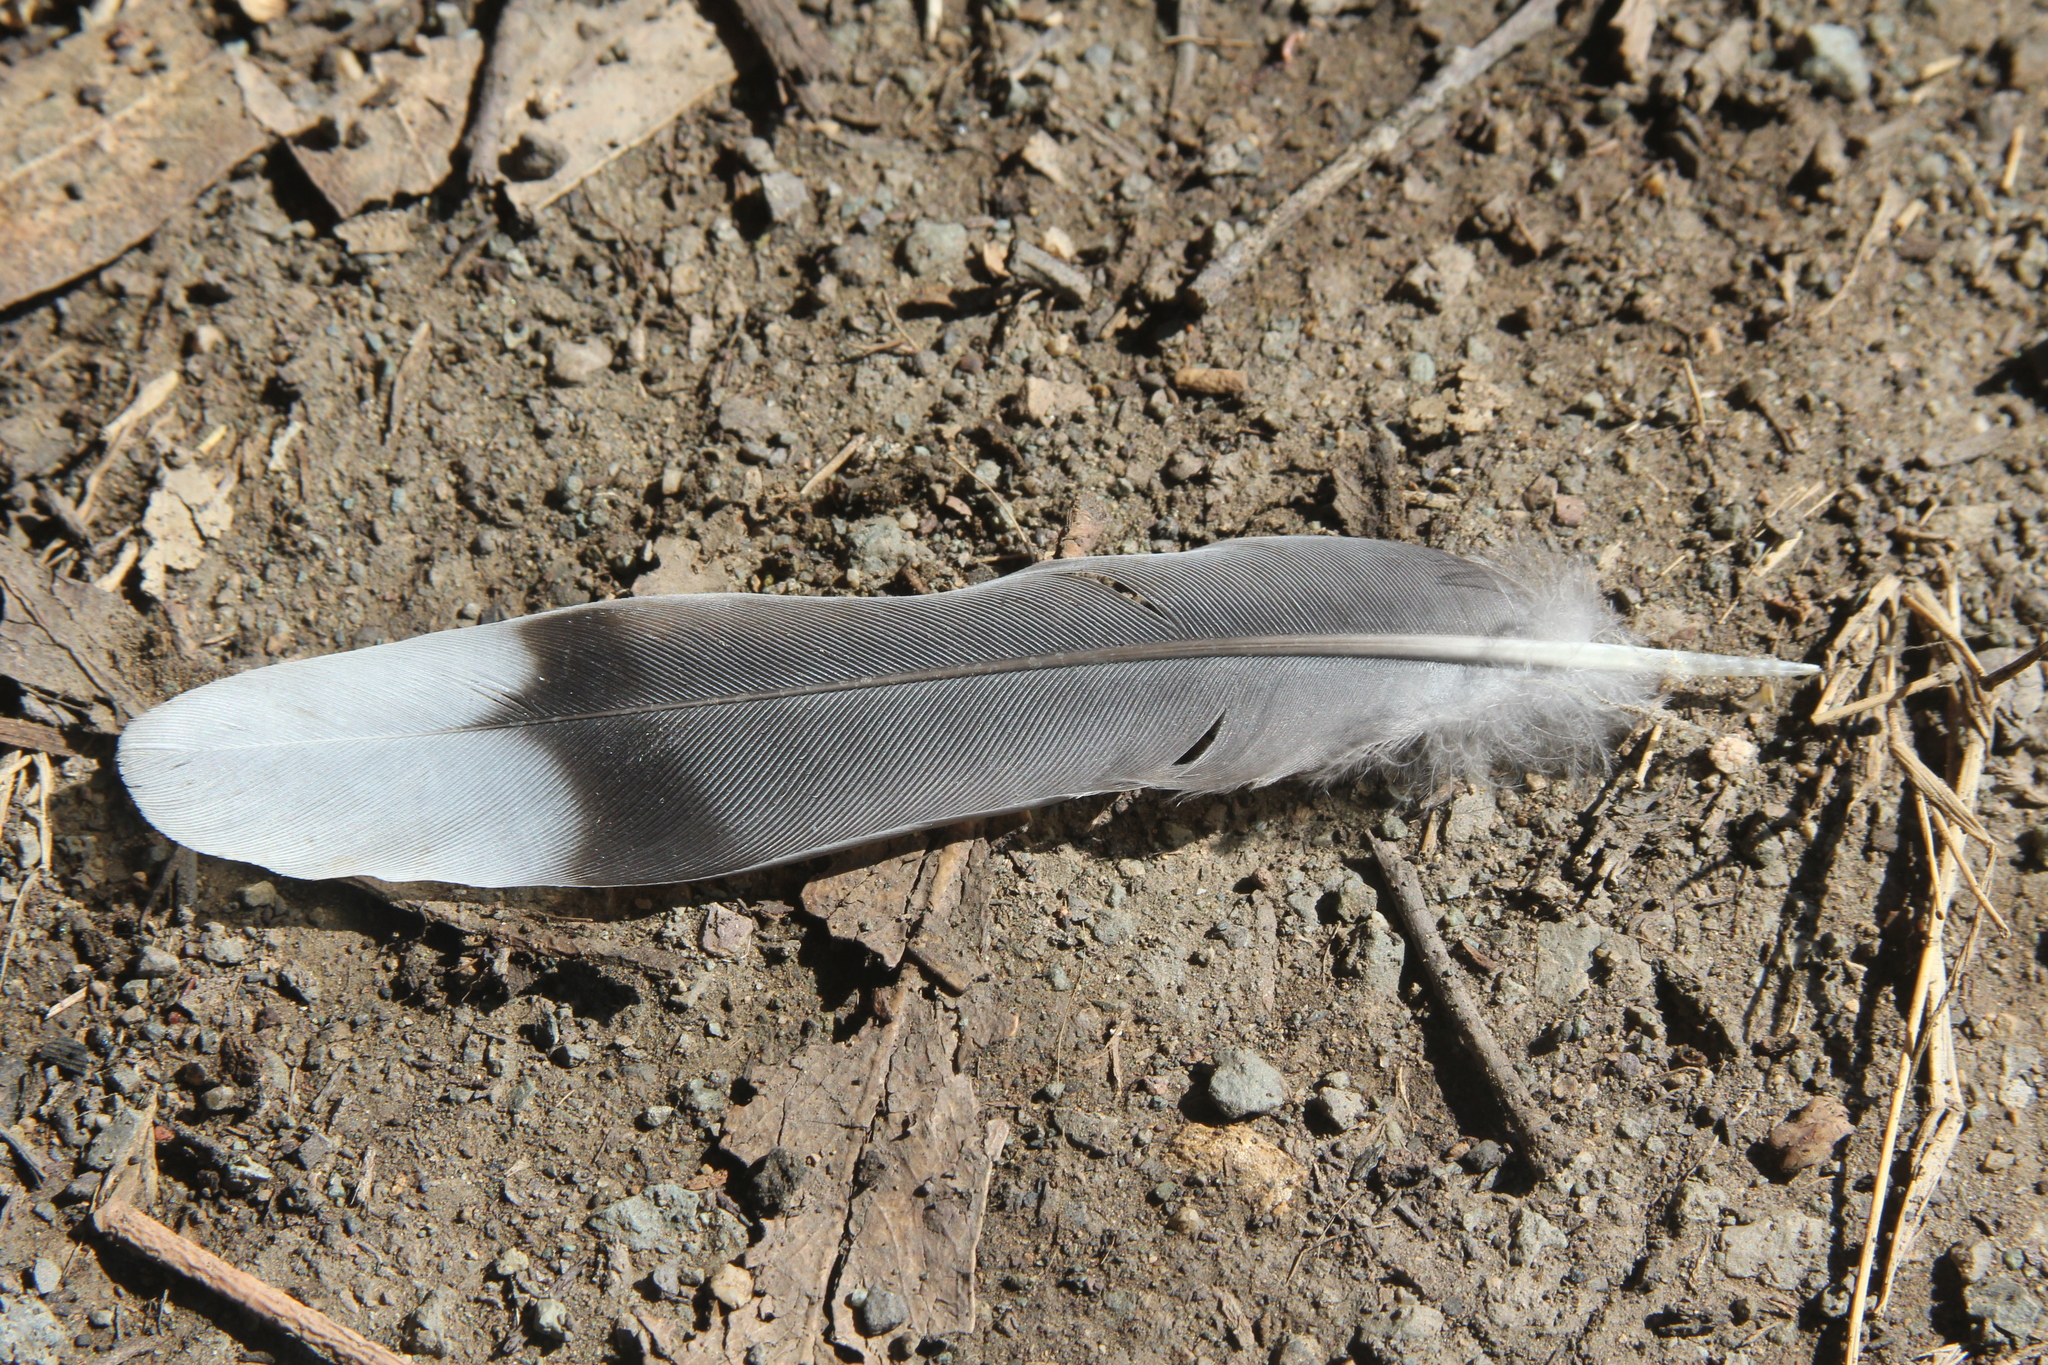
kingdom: Animalia
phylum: Chordata
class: Aves
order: Columbiformes
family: Columbidae
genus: Zenaida
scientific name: Zenaida macroura
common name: Mourning dove
